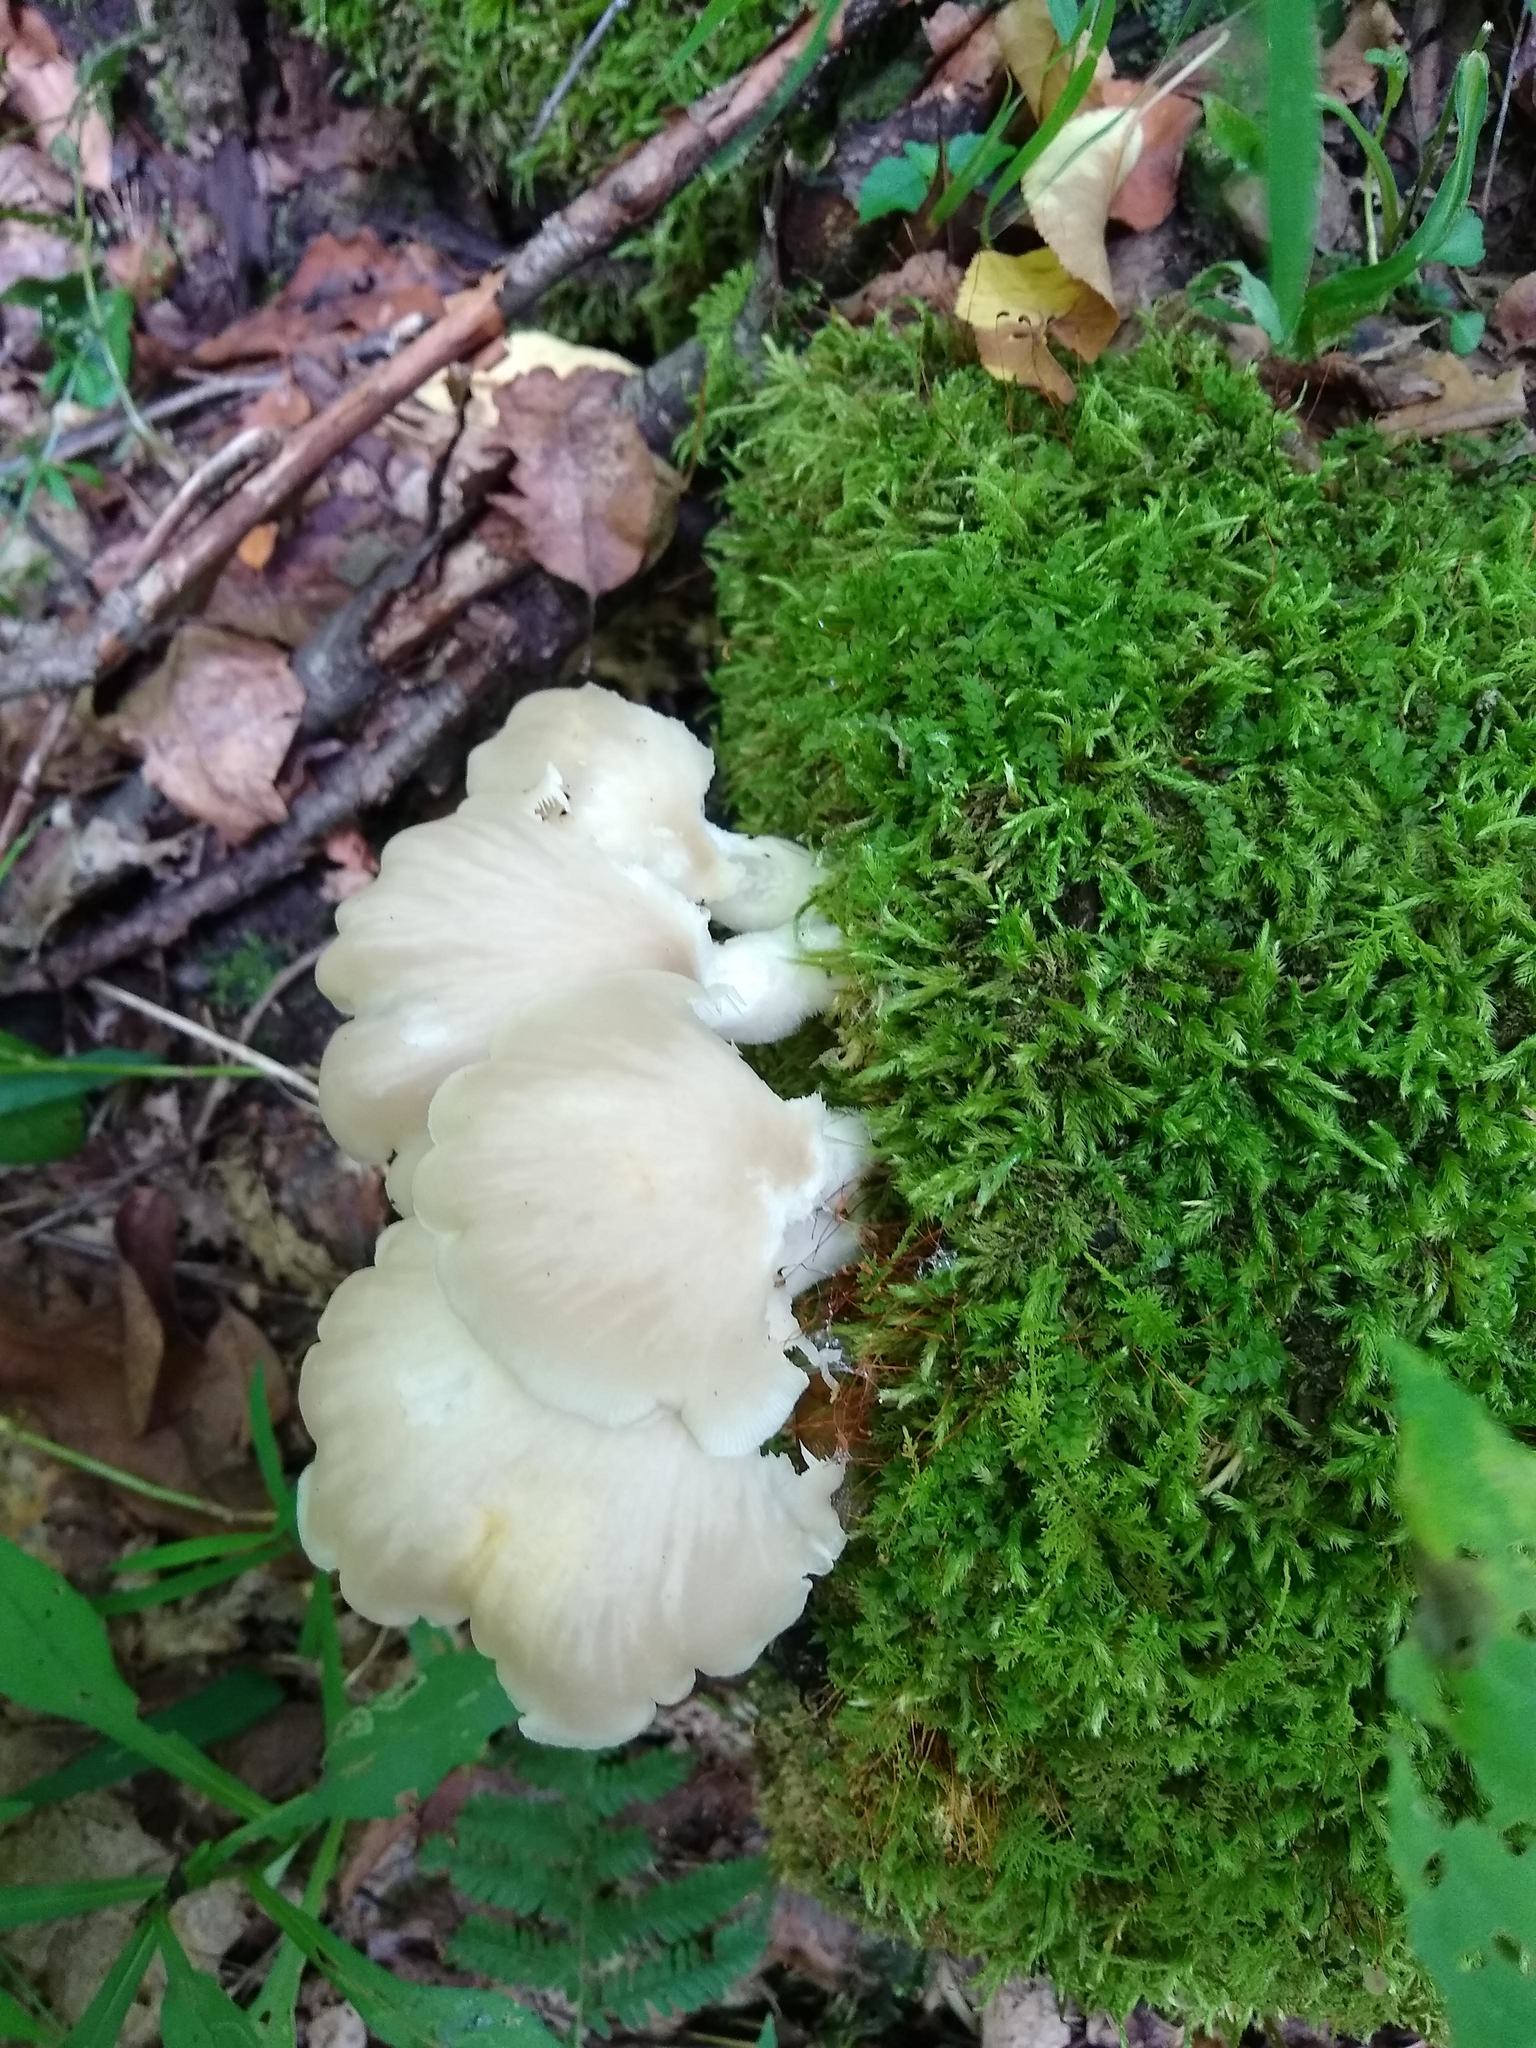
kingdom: Fungi
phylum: Basidiomycota
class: Agaricomycetes
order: Agaricales
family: Pleurotaceae
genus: Pleurotus
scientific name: Pleurotus pulmonarius
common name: Pale oyster
